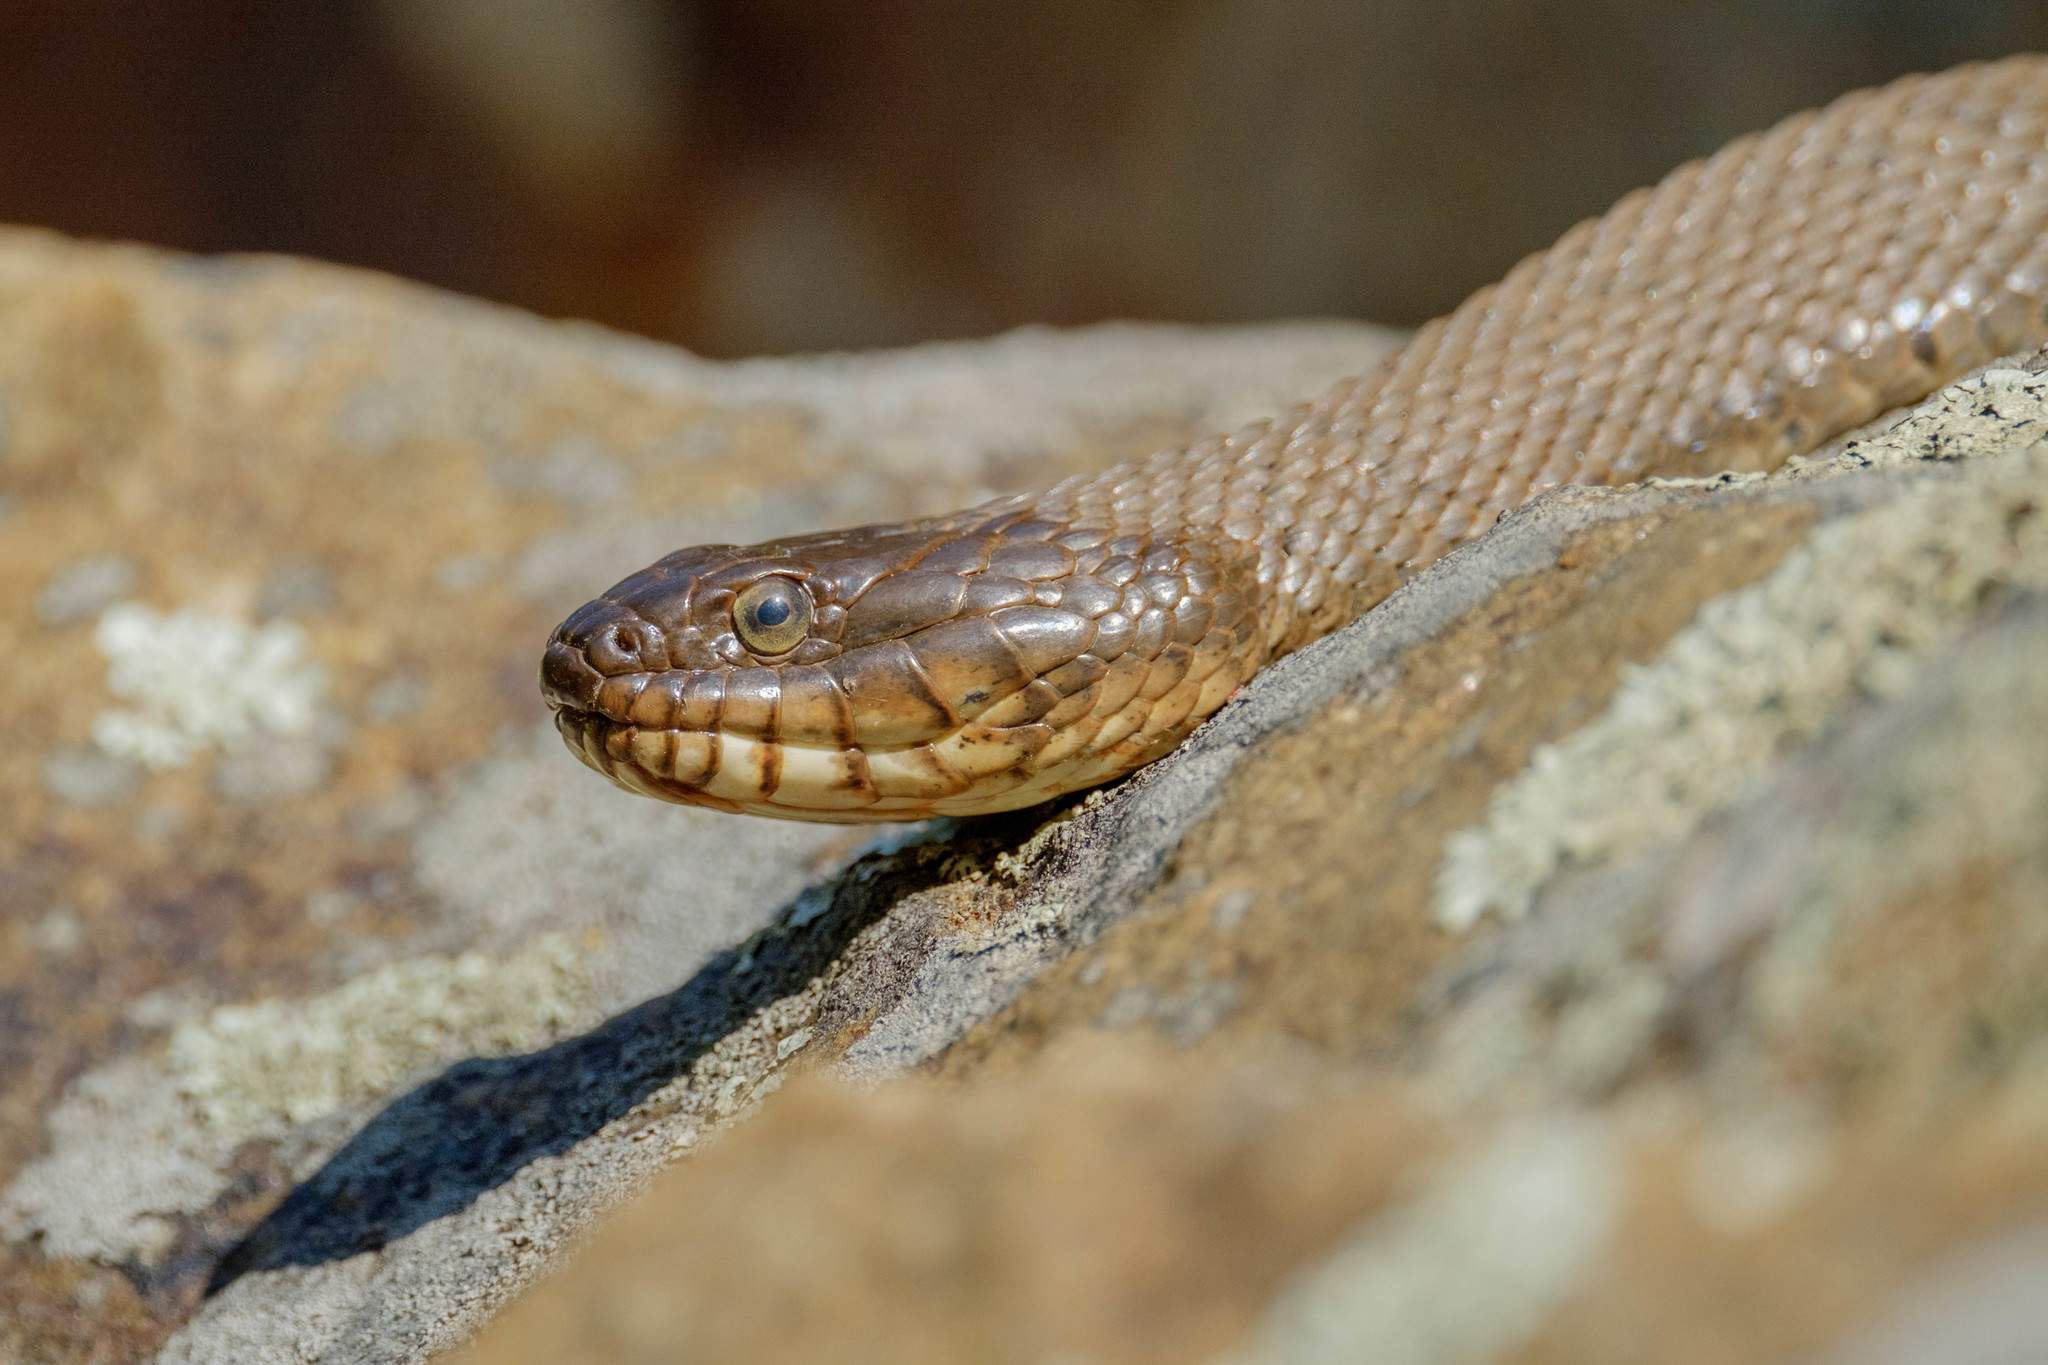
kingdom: Animalia
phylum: Chordata
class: Squamata
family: Colubridae
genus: Nerodia
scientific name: Nerodia sipedon
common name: Northern water snake
